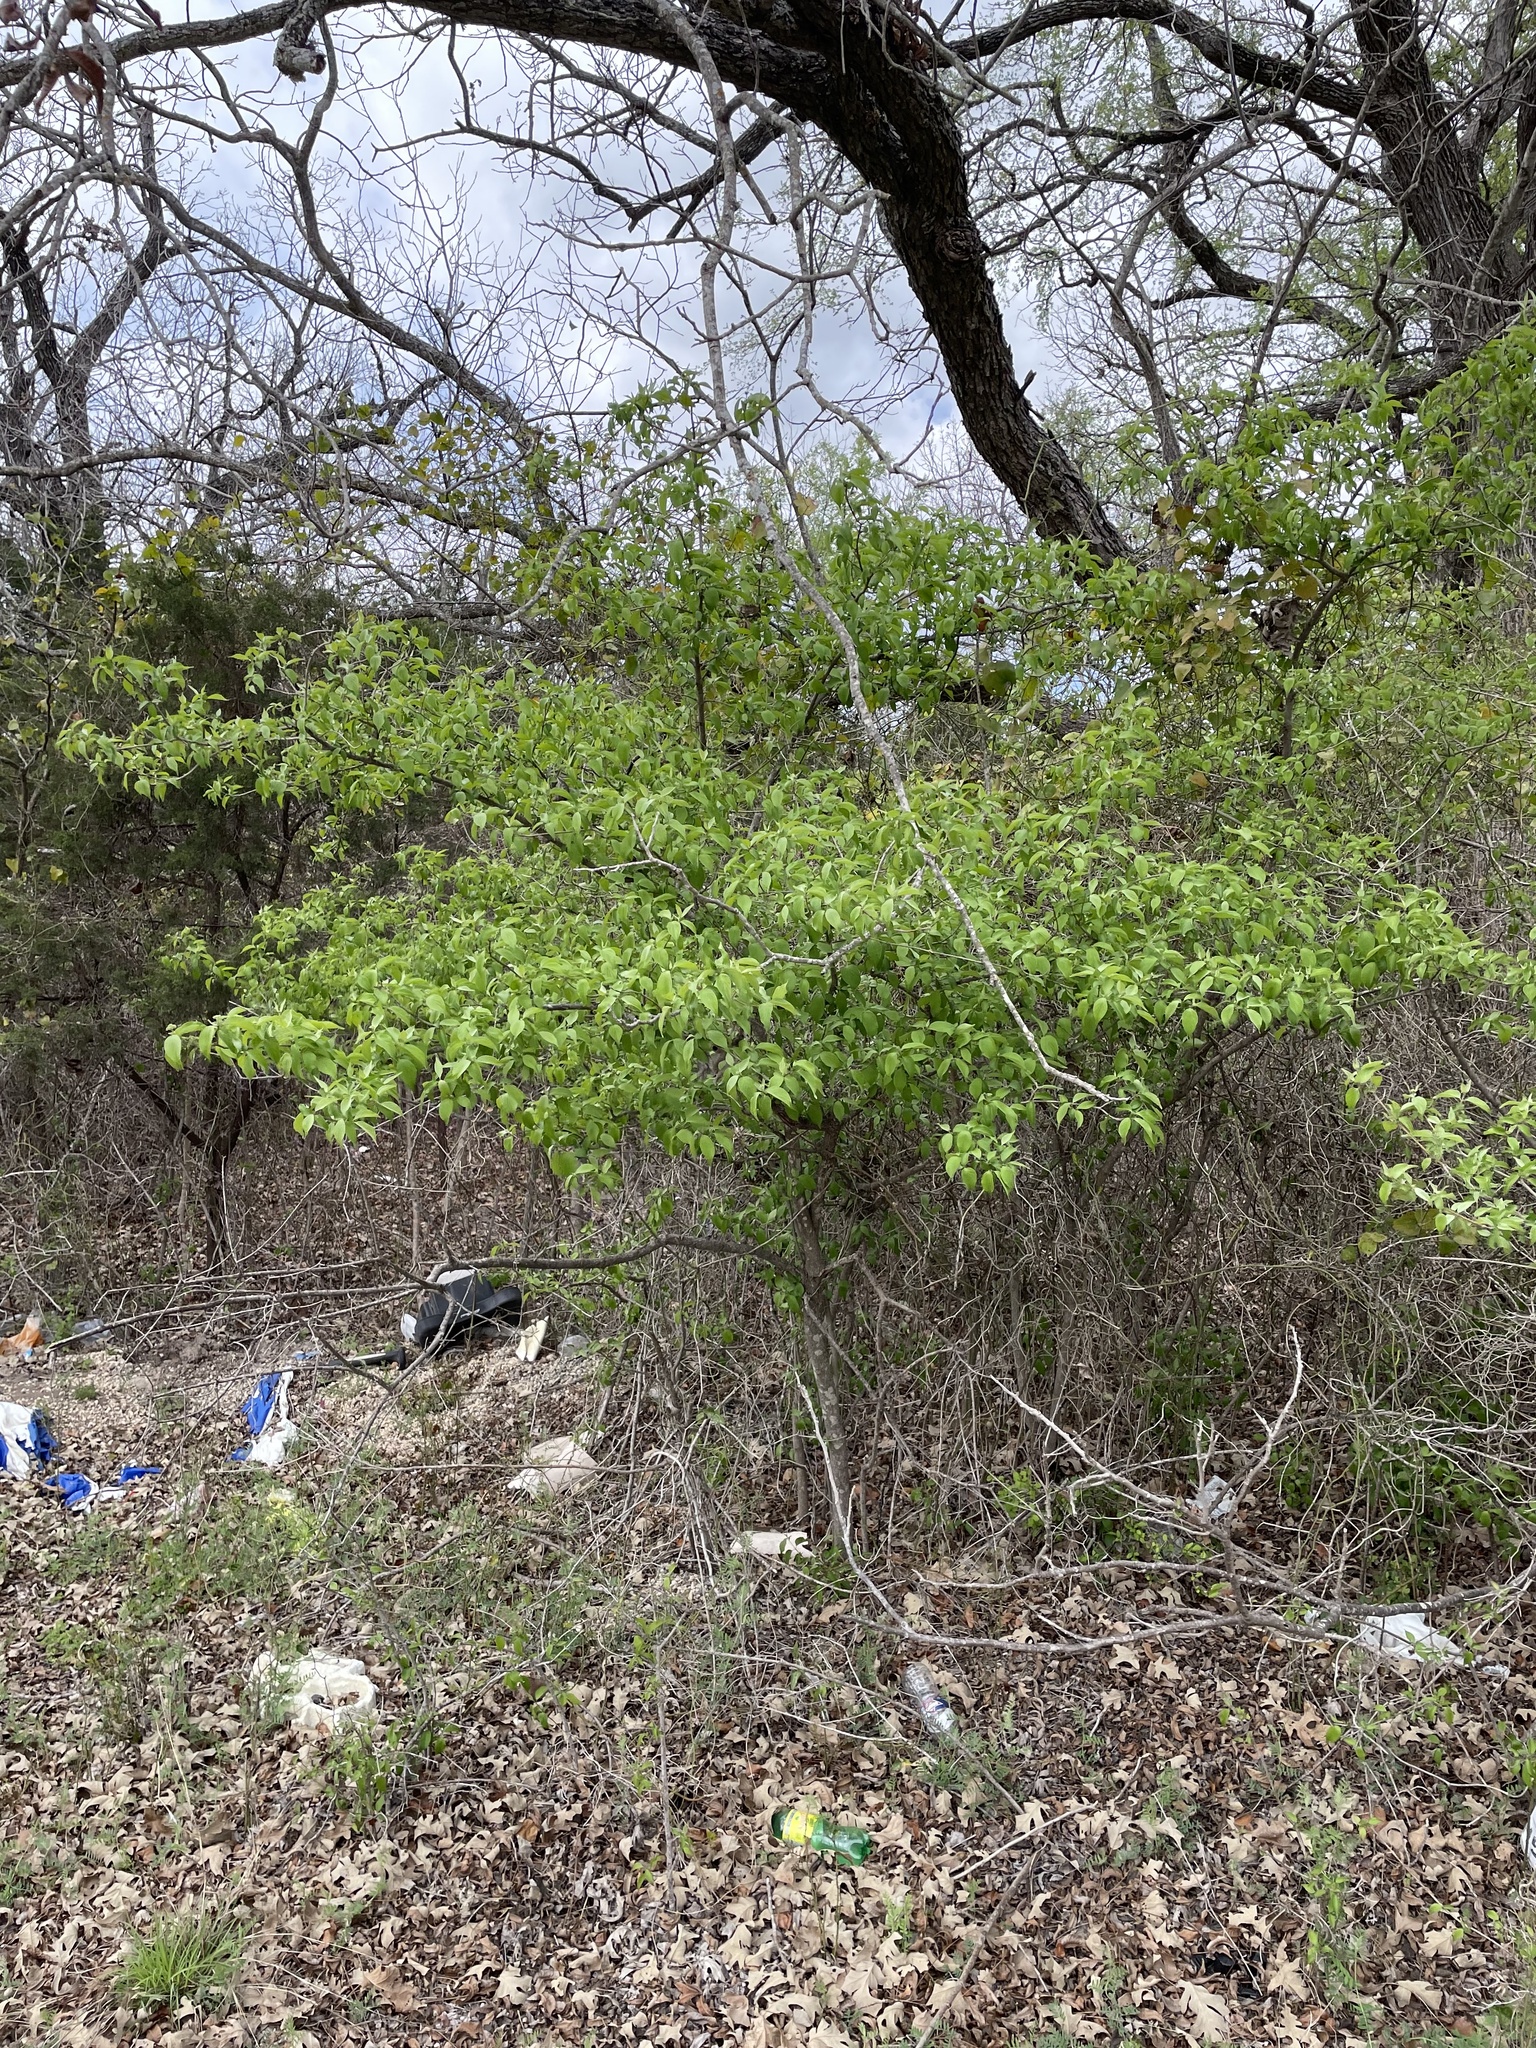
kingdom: Plantae
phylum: Tracheophyta
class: Magnoliopsida
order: Cornales
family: Cornaceae
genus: Cornus
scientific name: Cornus drummondii
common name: Rough-leaf dogwood
